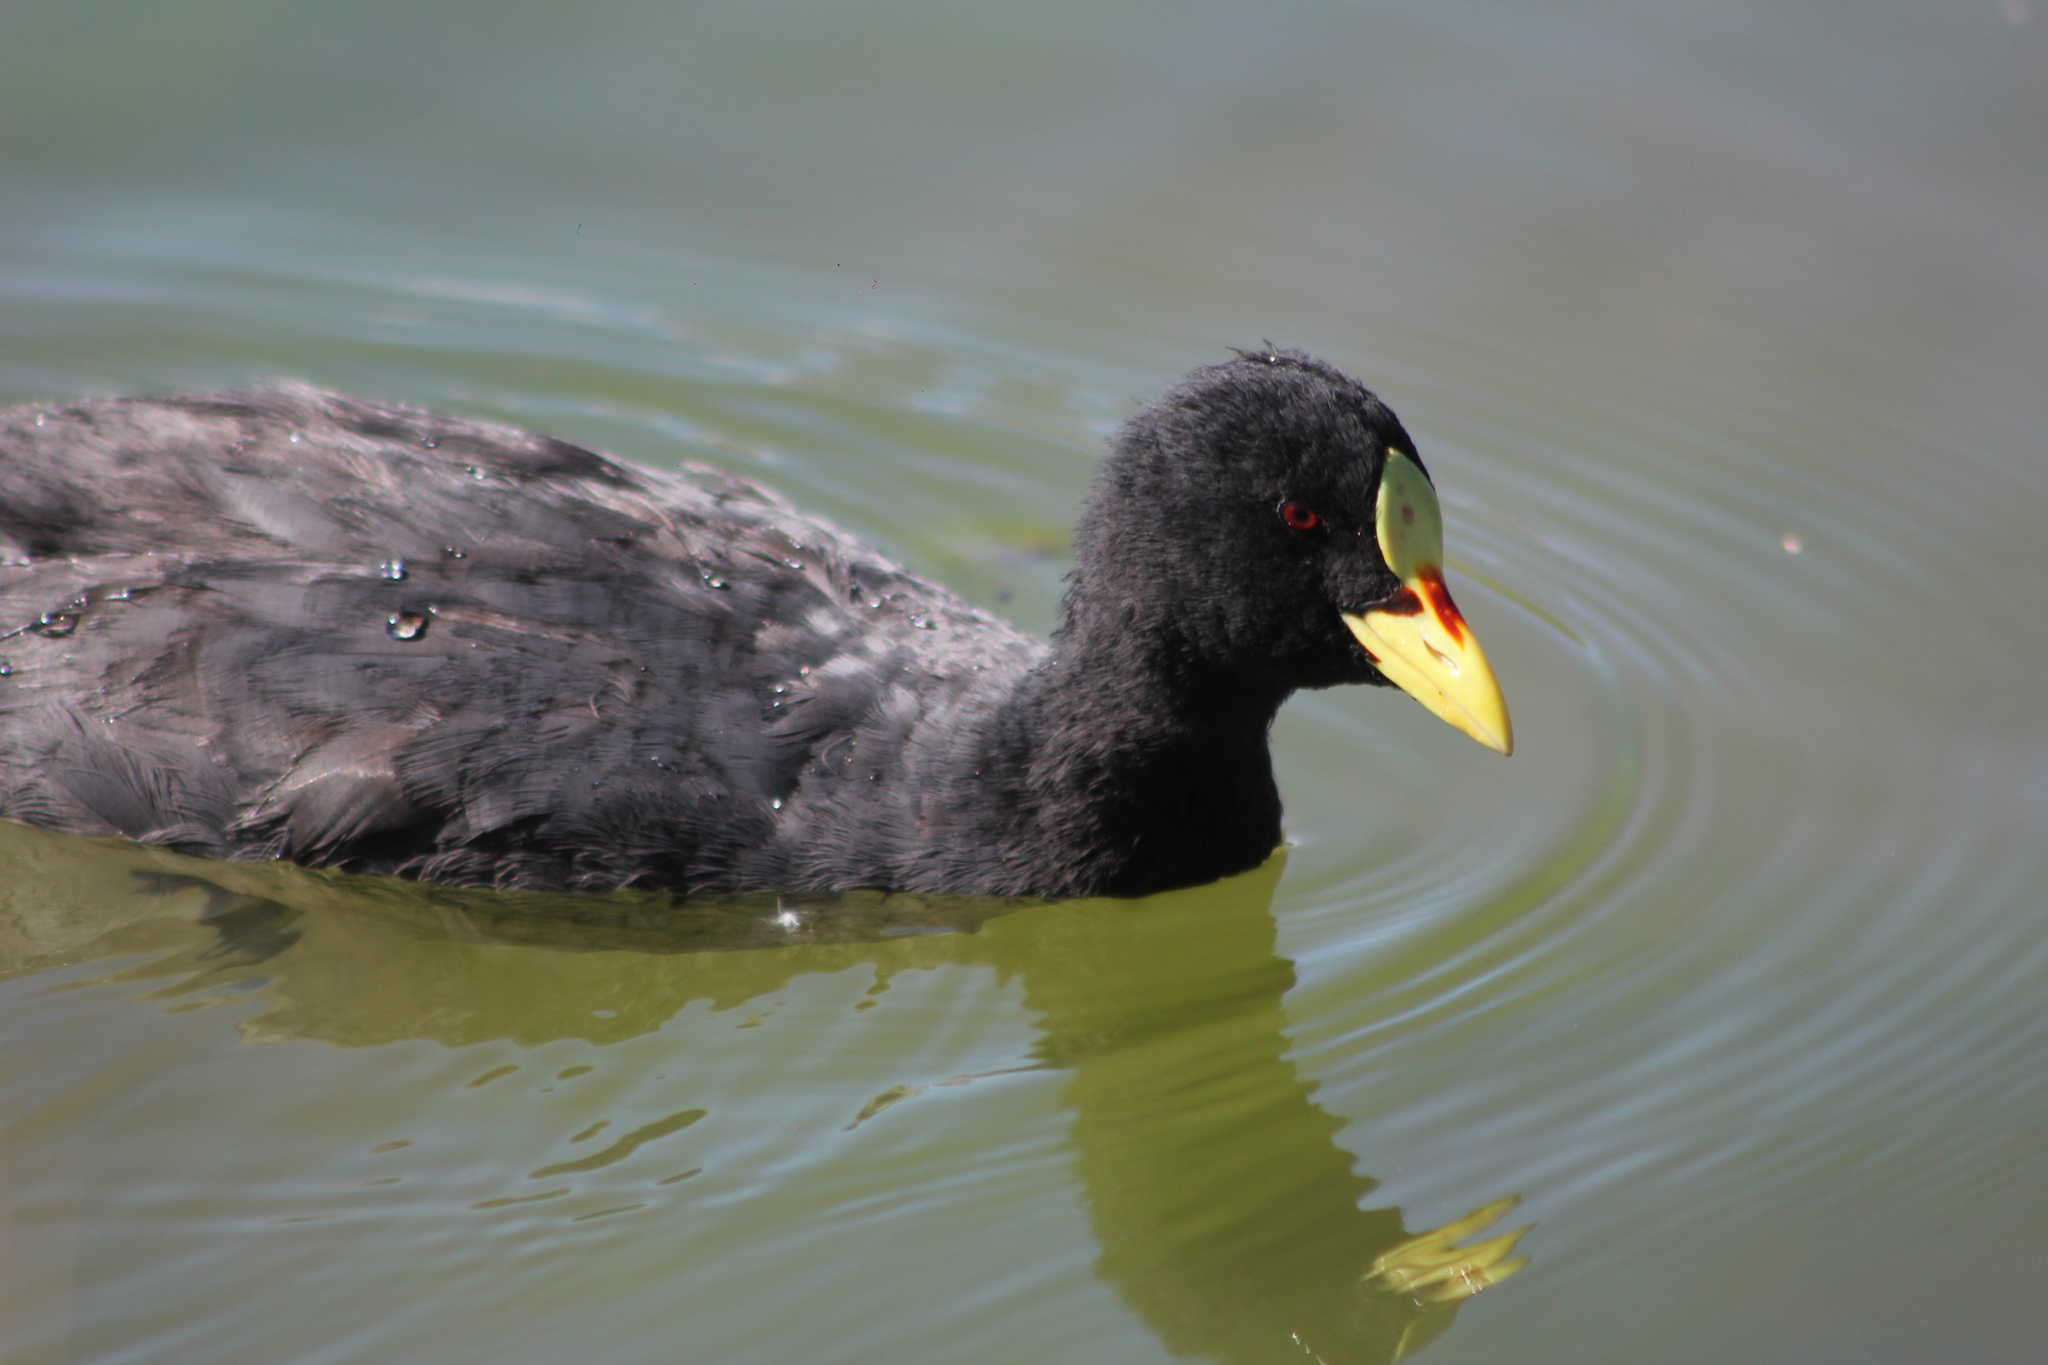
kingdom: Animalia
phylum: Chordata
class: Aves
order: Gruiformes
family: Rallidae
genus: Fulica
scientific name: Fulica armillata
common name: Red-gartered coot
